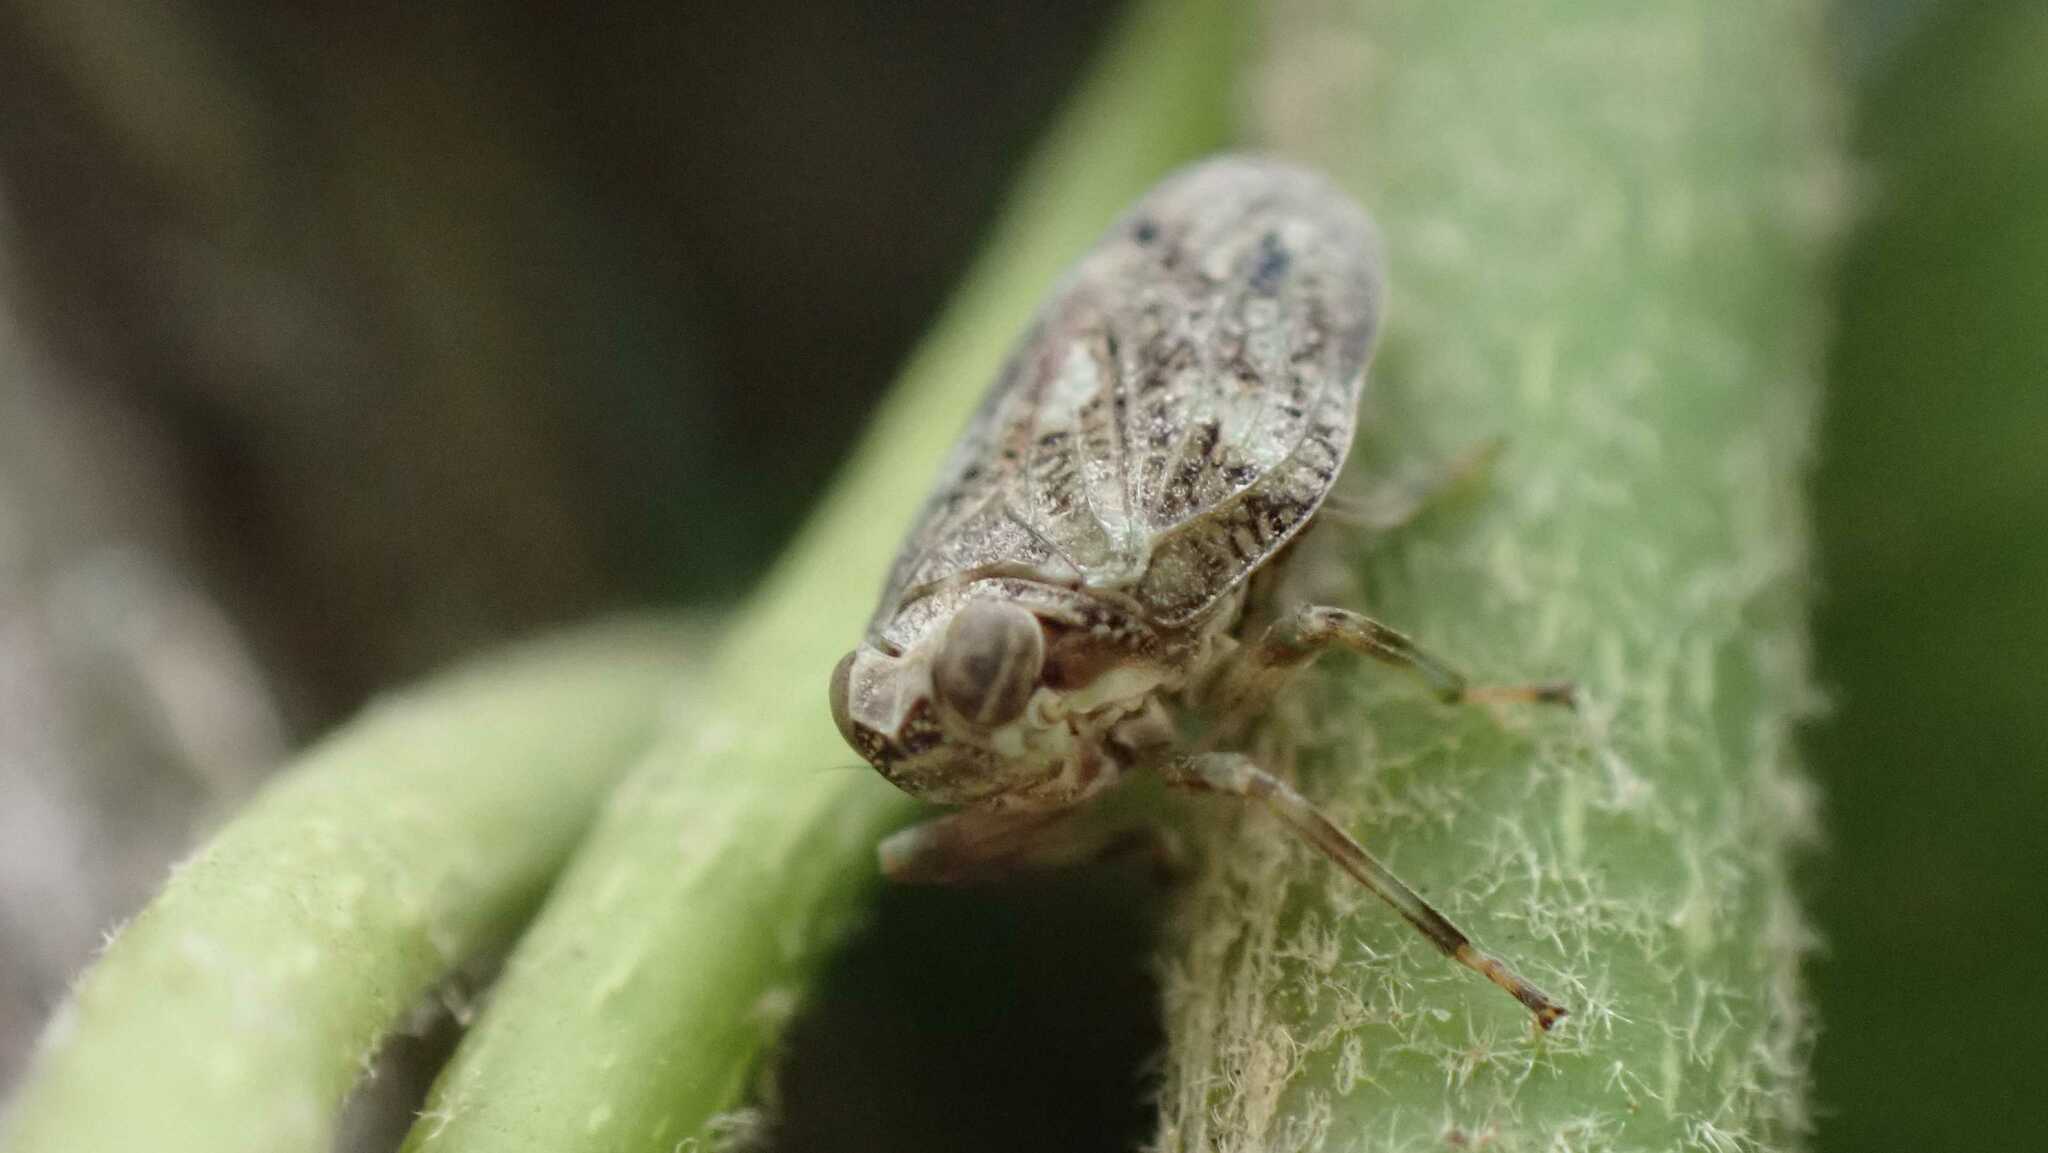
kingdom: Animalia
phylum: Arthropoda
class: Insecta
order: Hemiptera
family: Issidae
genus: Issus
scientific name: Issus coleoptratus
